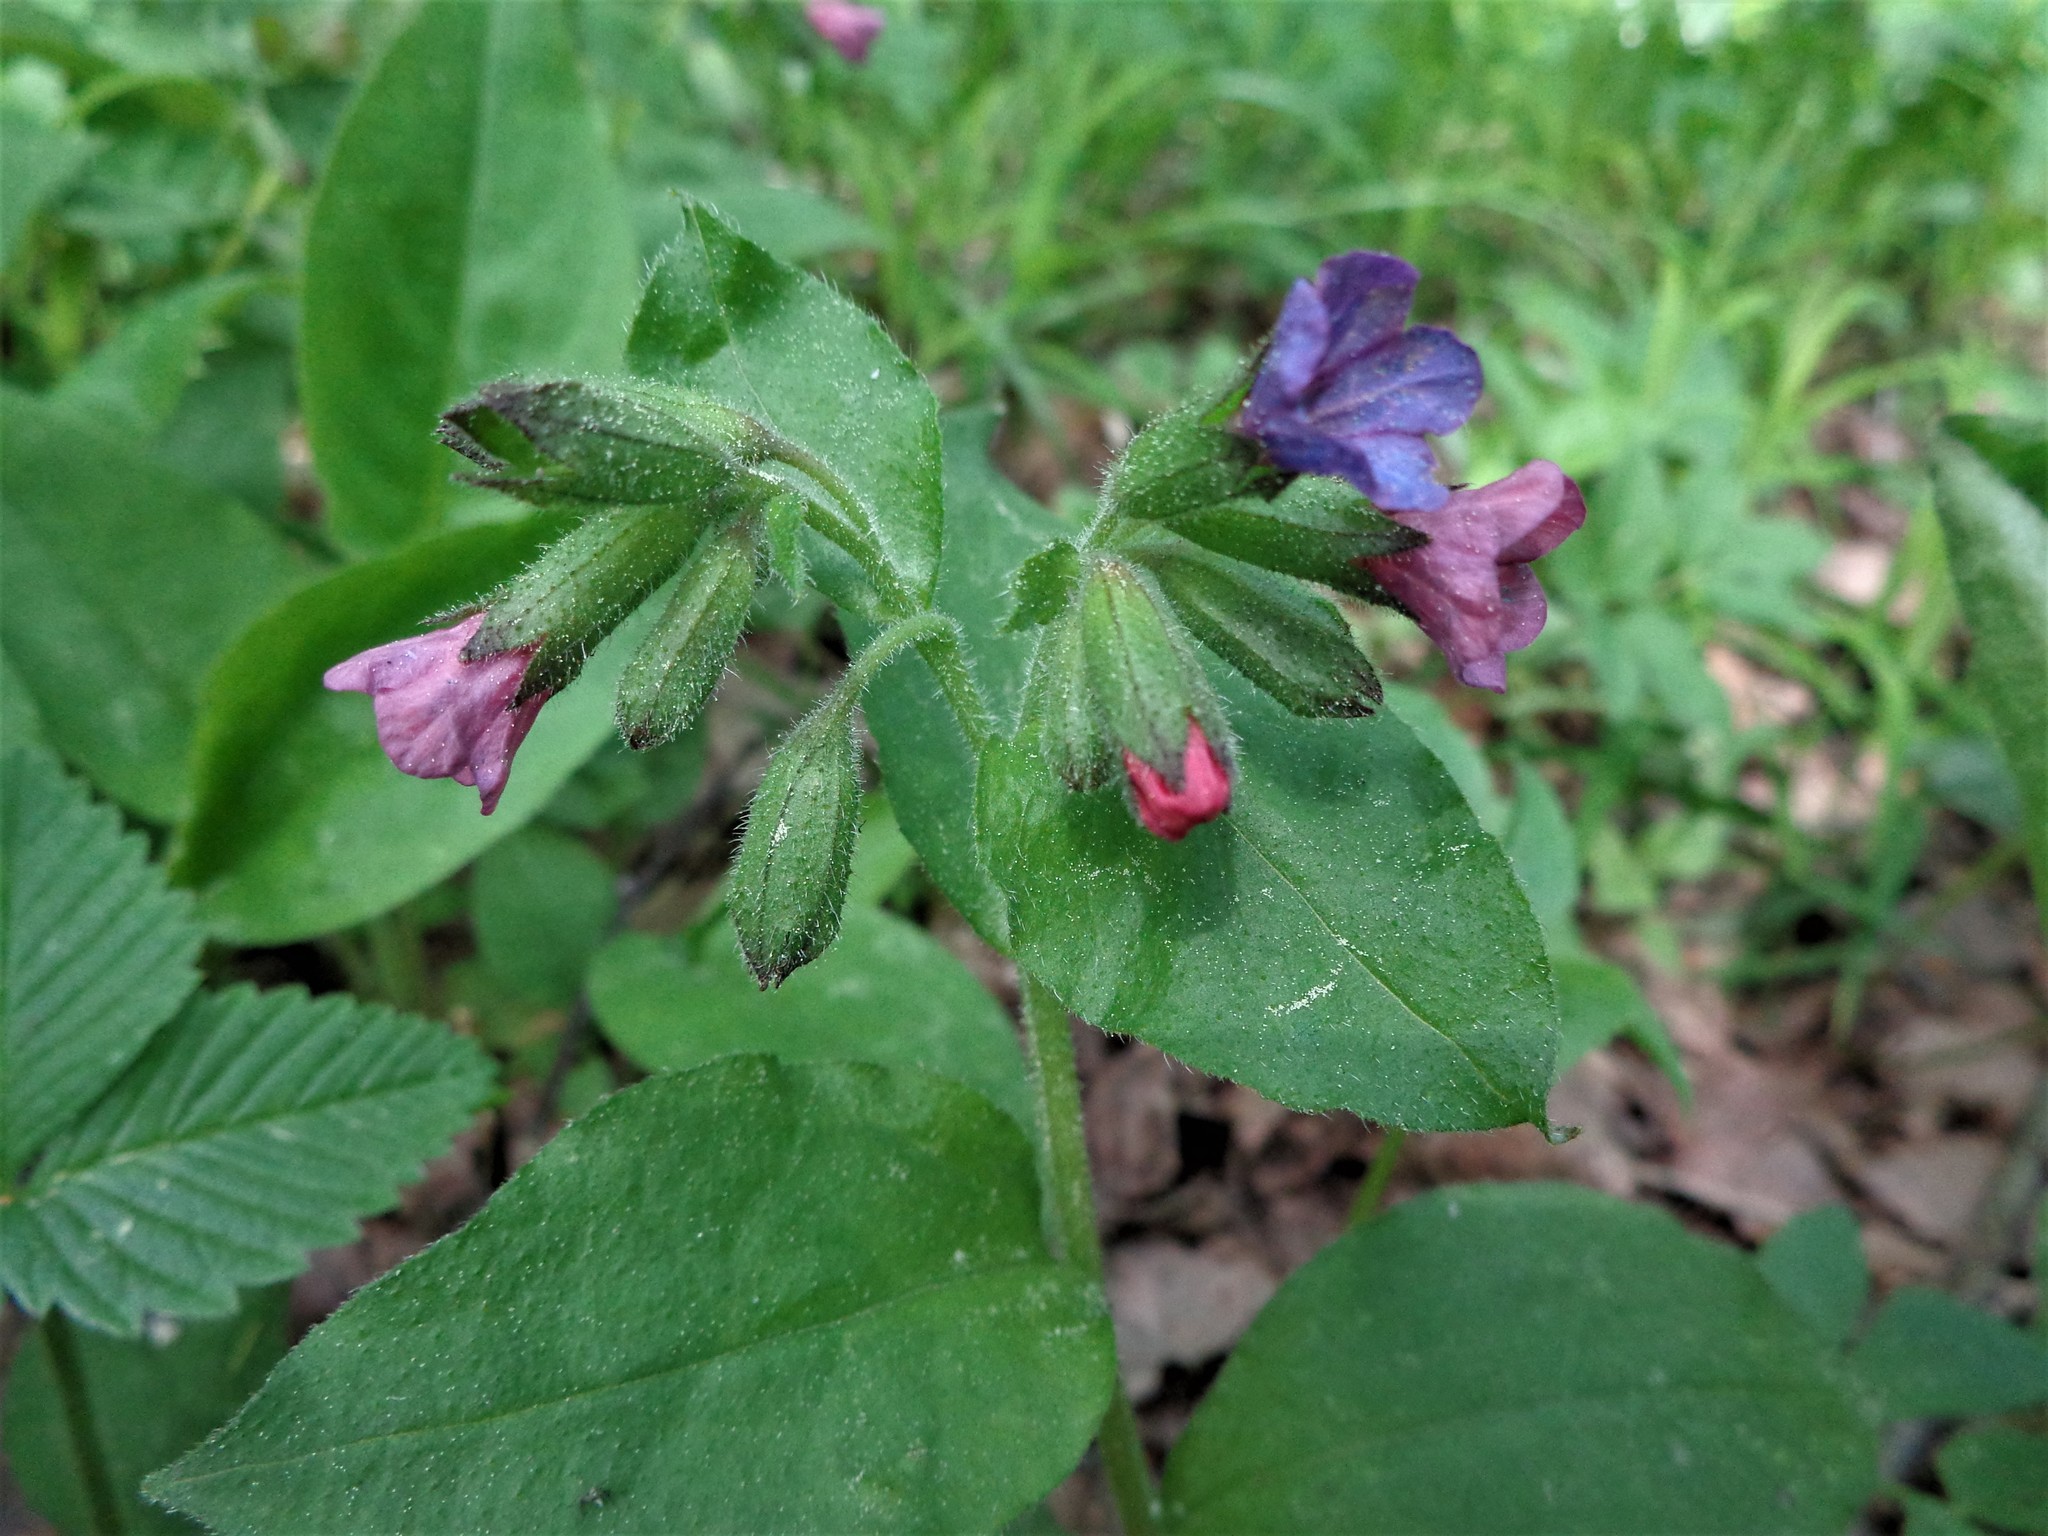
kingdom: Plantae
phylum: Tracheophyta
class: Magnoliopsida
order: Boraginales
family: Boraginaceae
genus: Pulmonaria
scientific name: Pulmonaria obscura
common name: Suffolk lungwort
